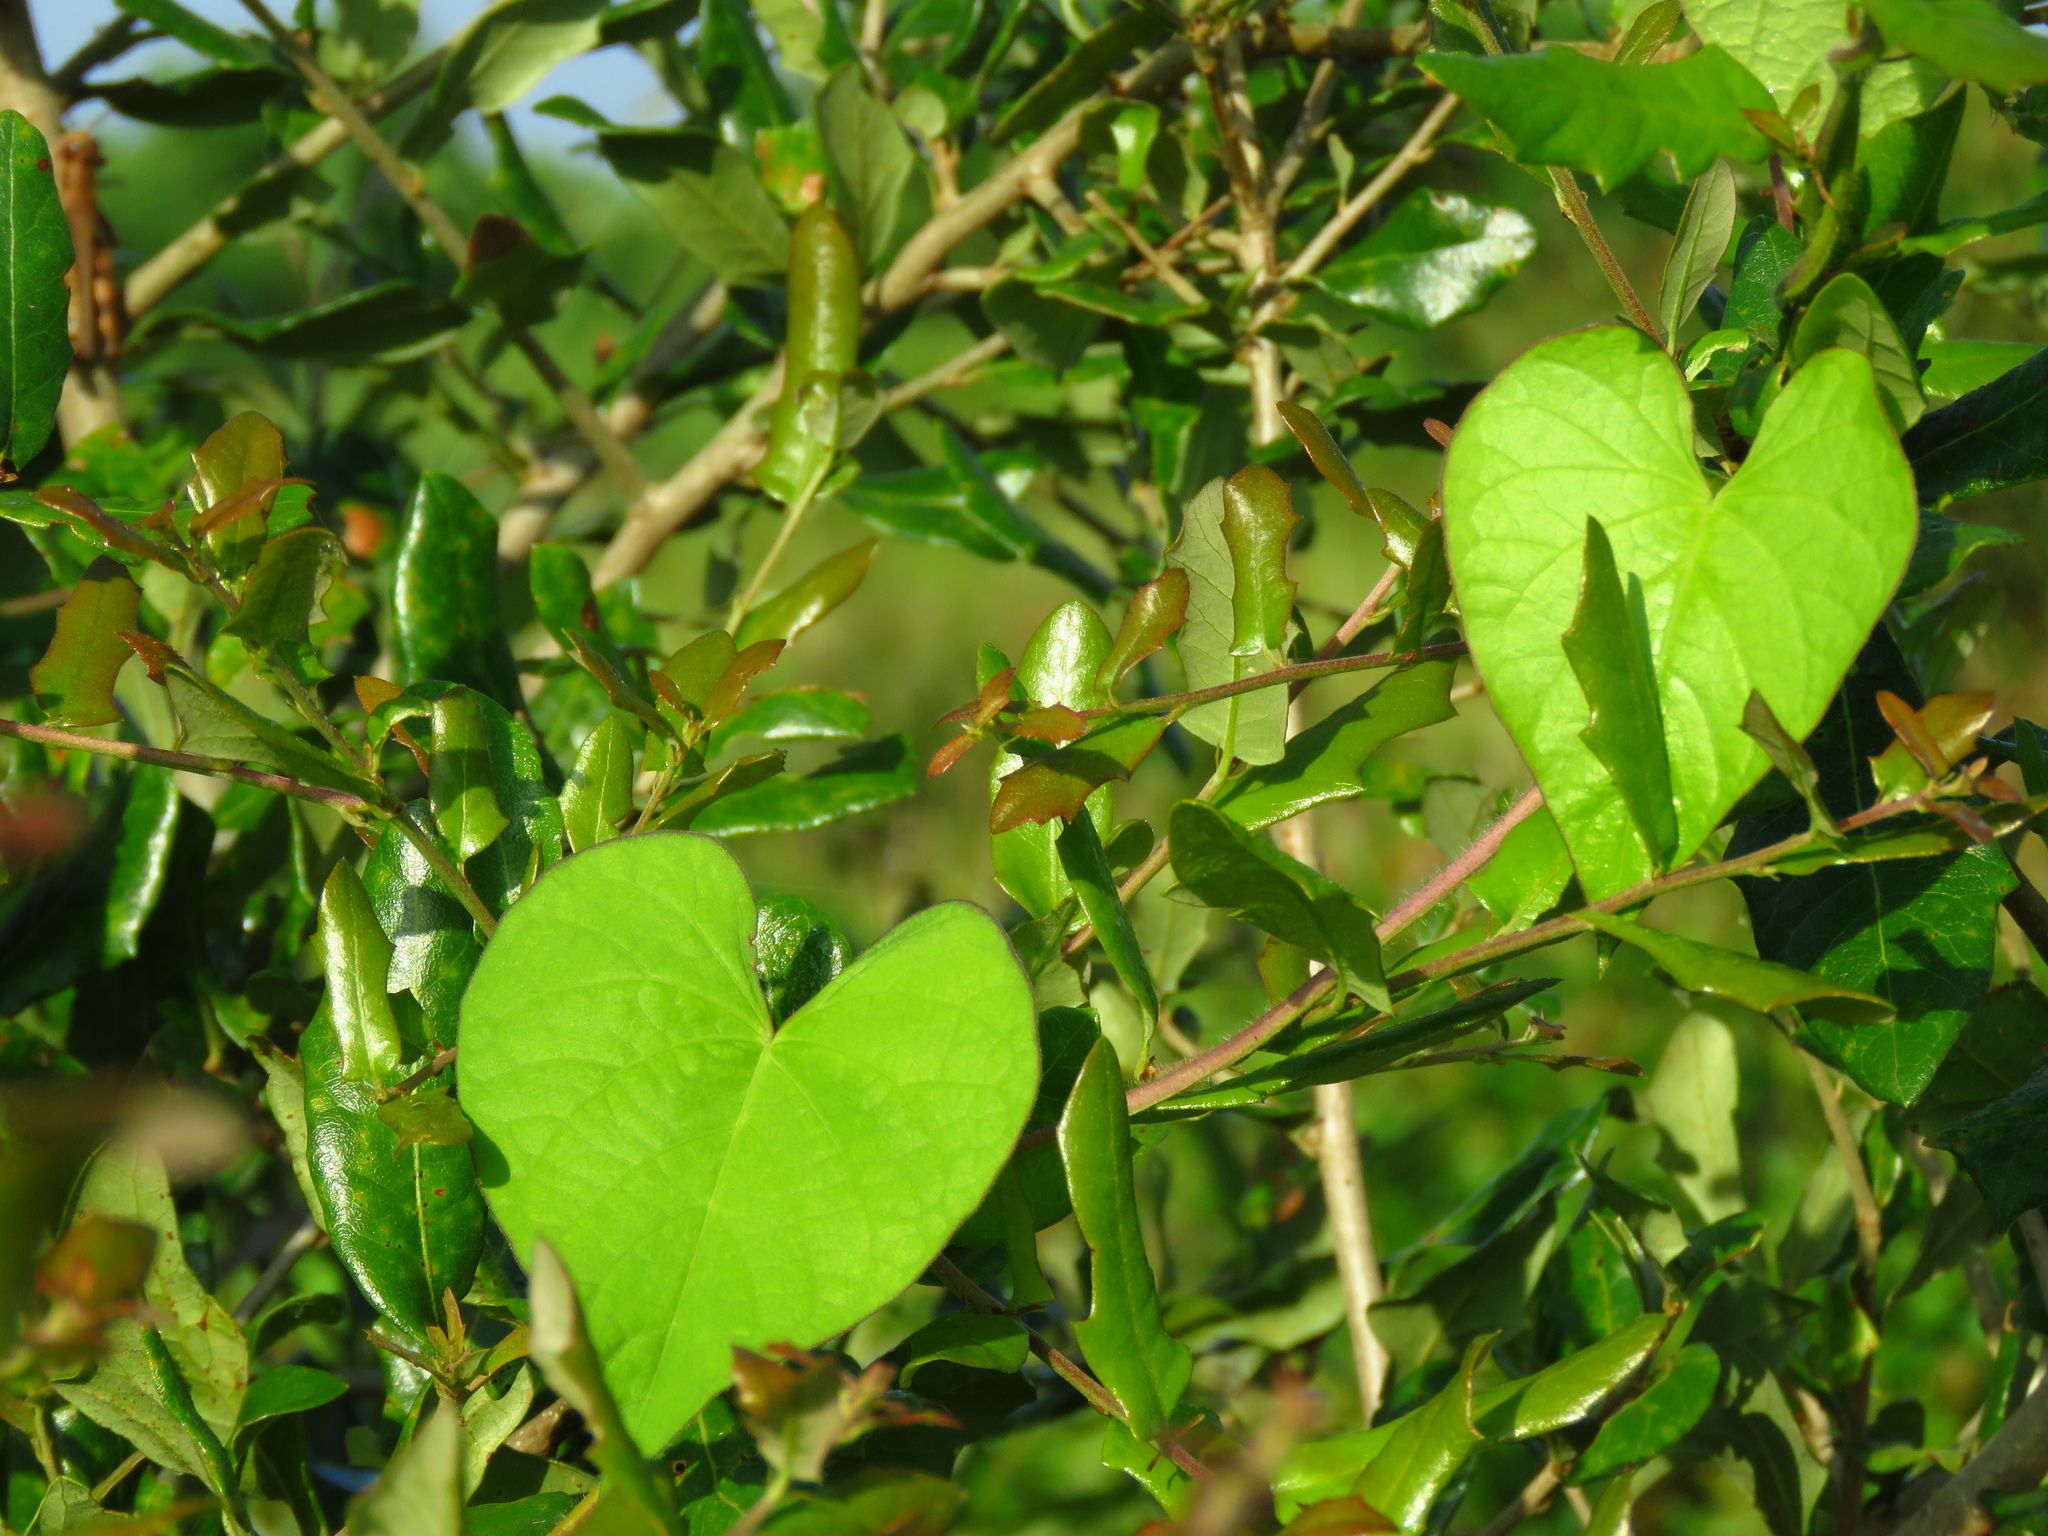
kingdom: Plantae
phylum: Tracheophyta
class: Magnoliopsida
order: Solanales
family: Convolvulaceae
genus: Ipomoea
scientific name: Ipomoea cordatotriloba
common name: Cotton morning glory
